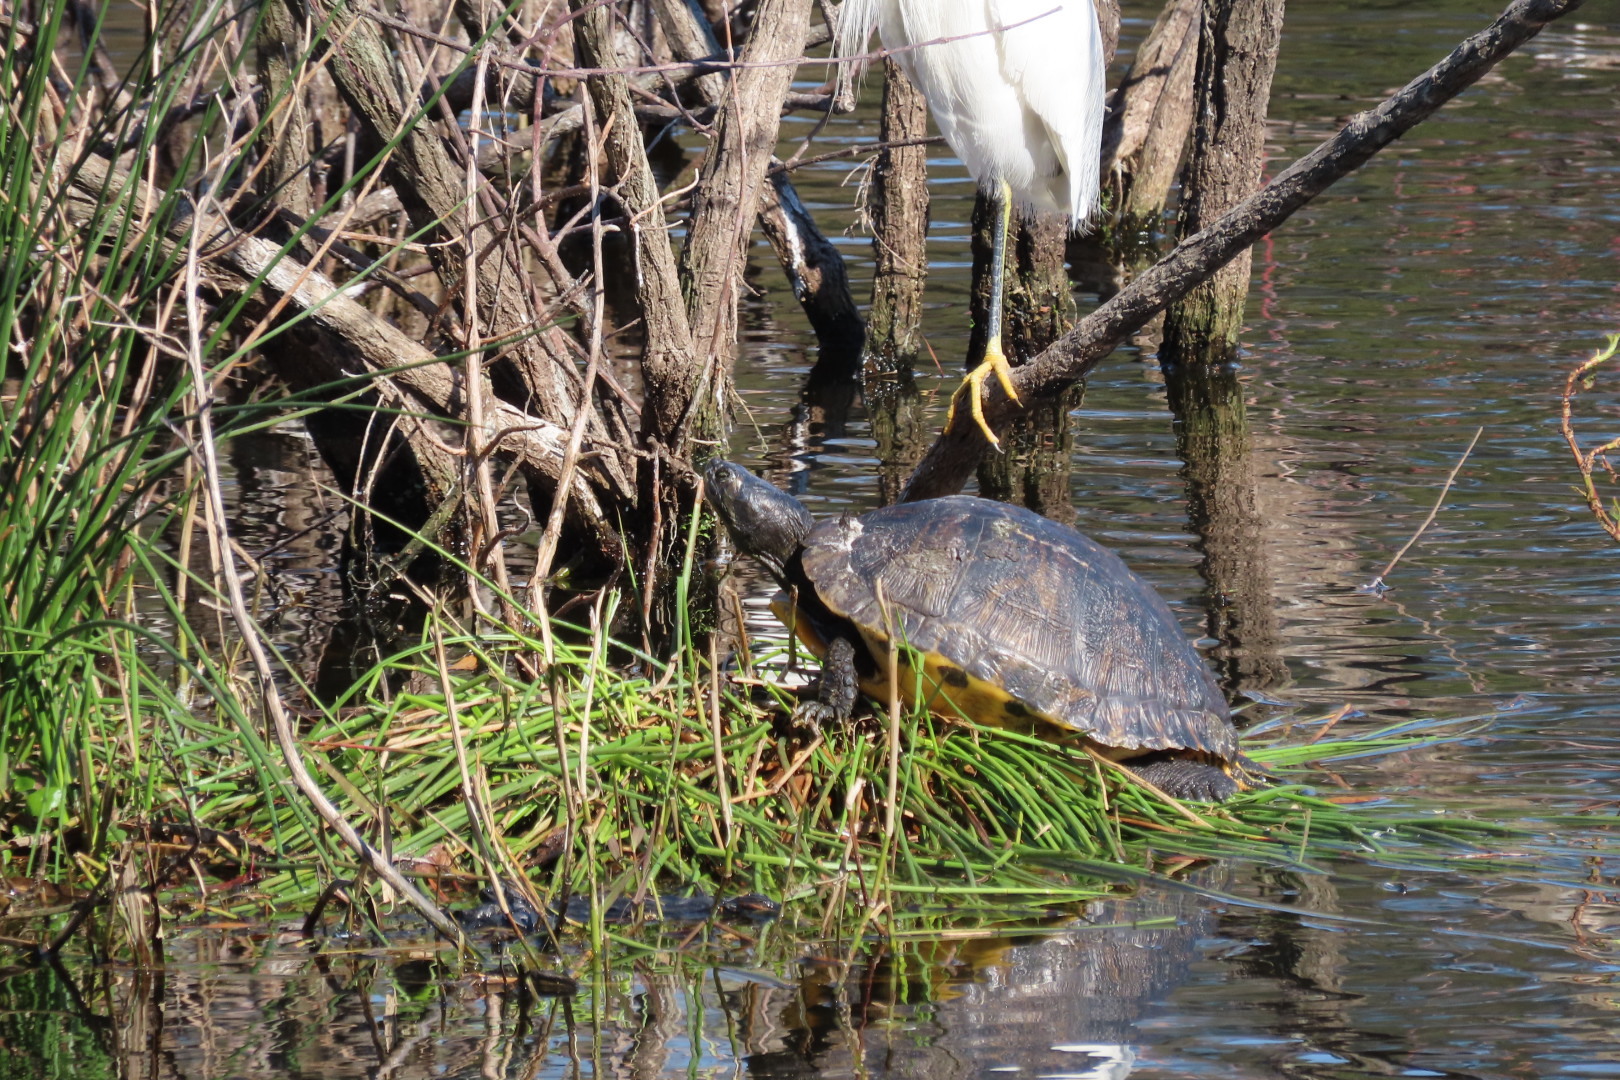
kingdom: Animalia
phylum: Chordata
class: Testudines
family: Emydidae
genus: Trachemys
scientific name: Trachemys scripta
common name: Slider
